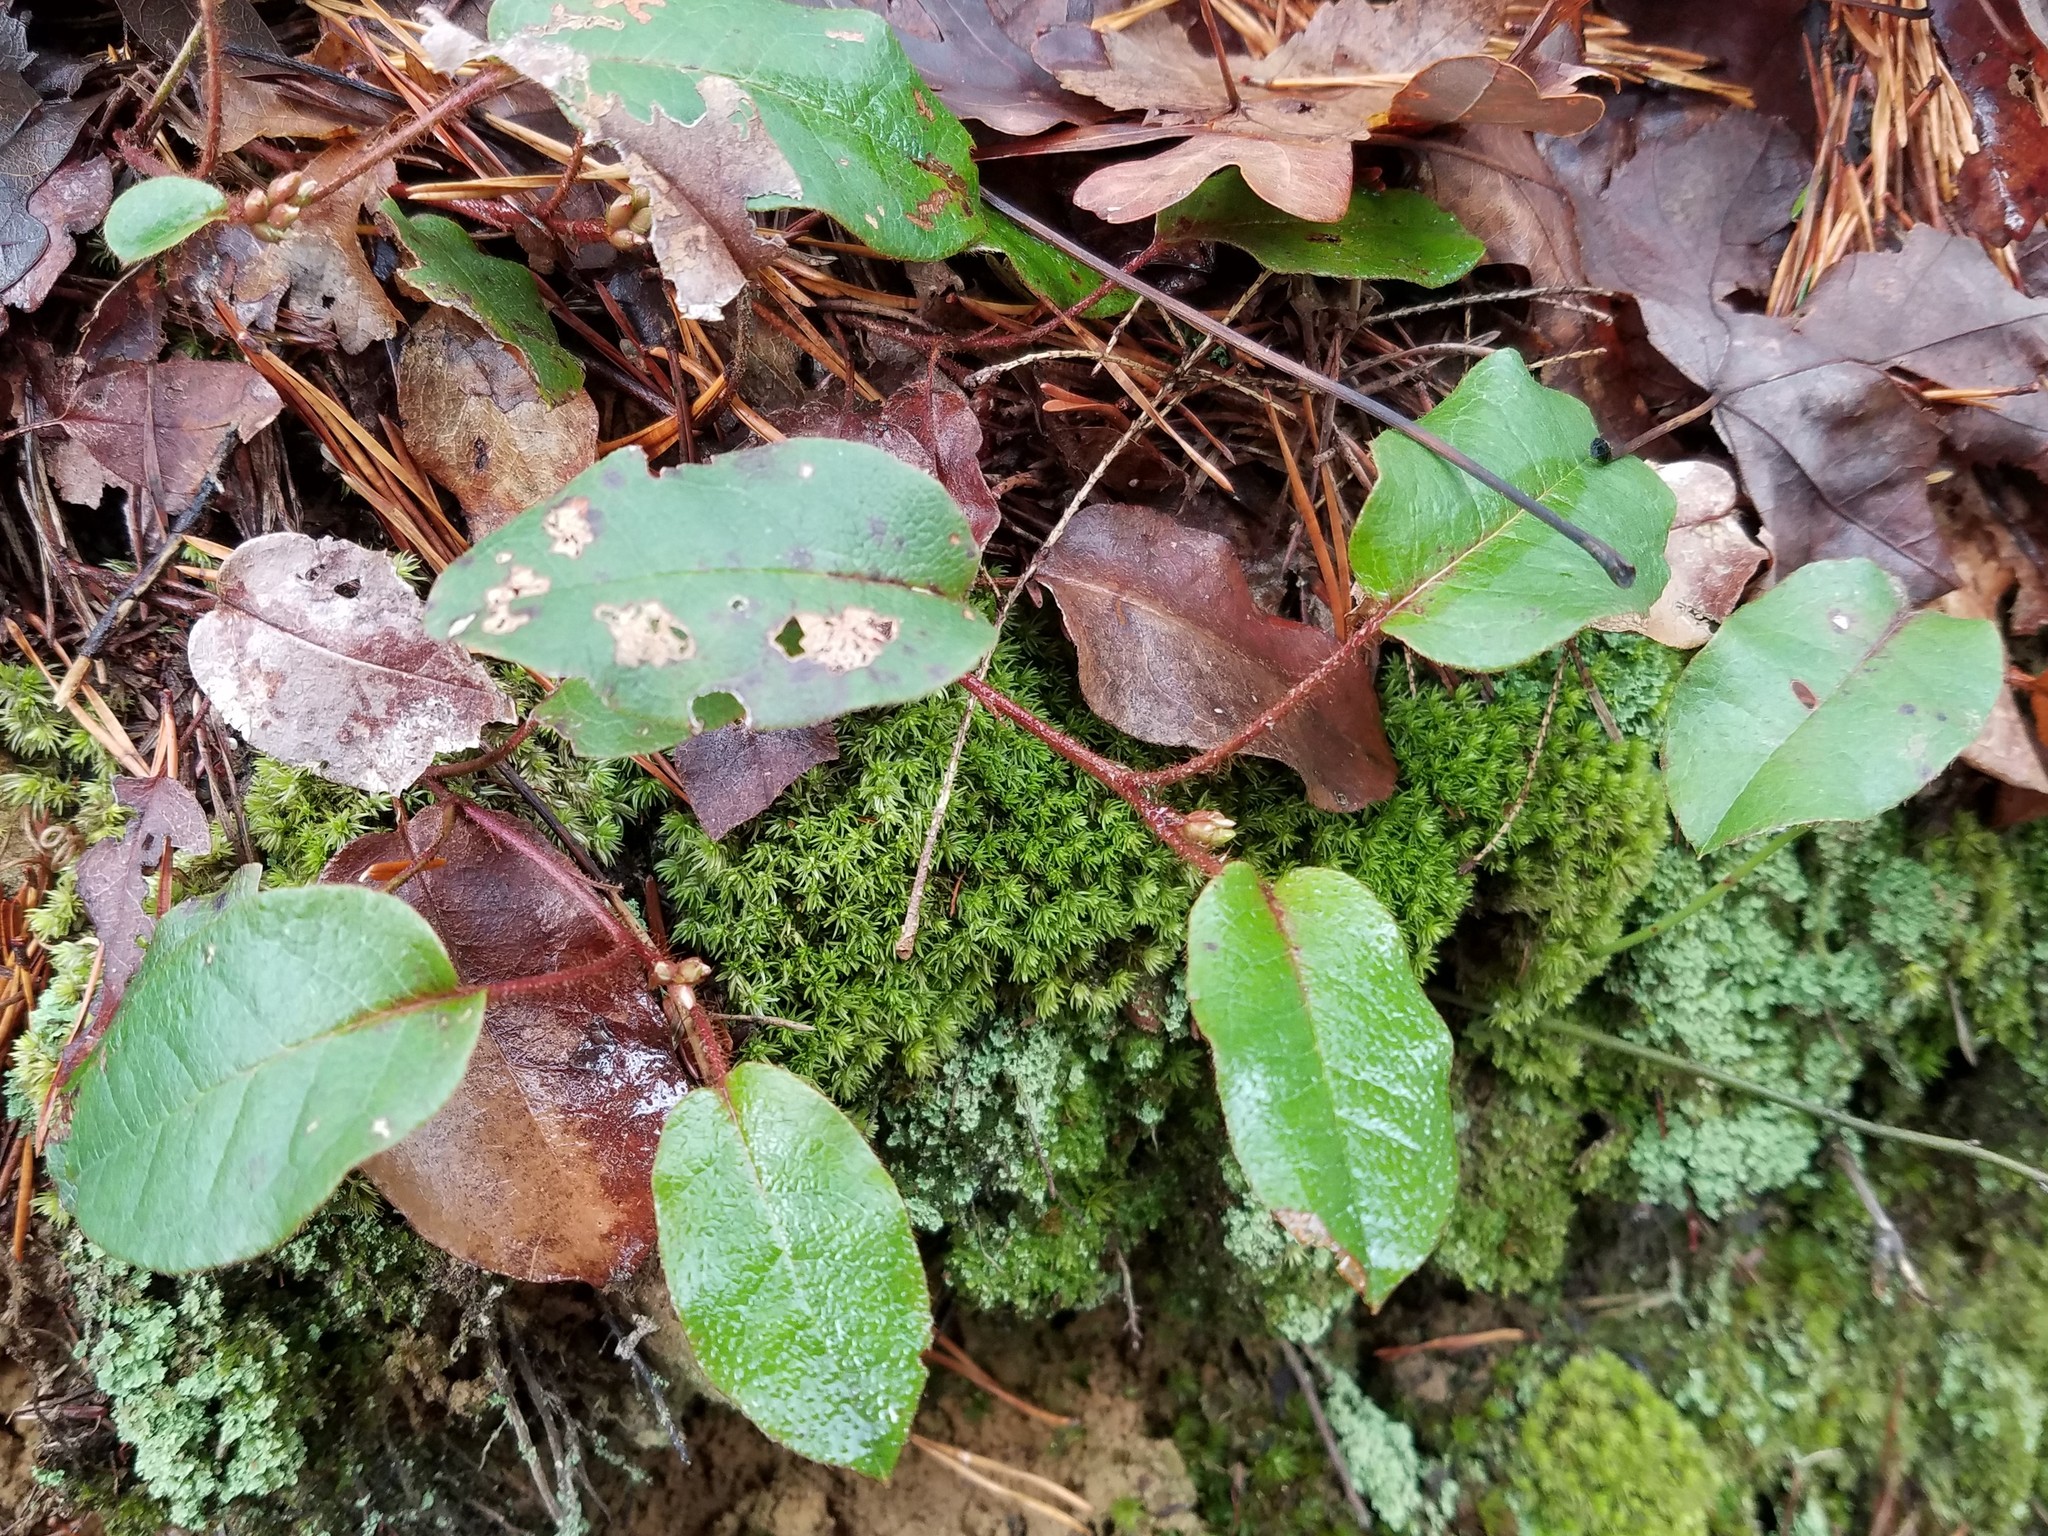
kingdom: Plantae
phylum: Tracheophyta
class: Magnoliopsida
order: Ericales
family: Ericaceae
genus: Epigaea
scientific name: Epigaea repens
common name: Gravelroot
